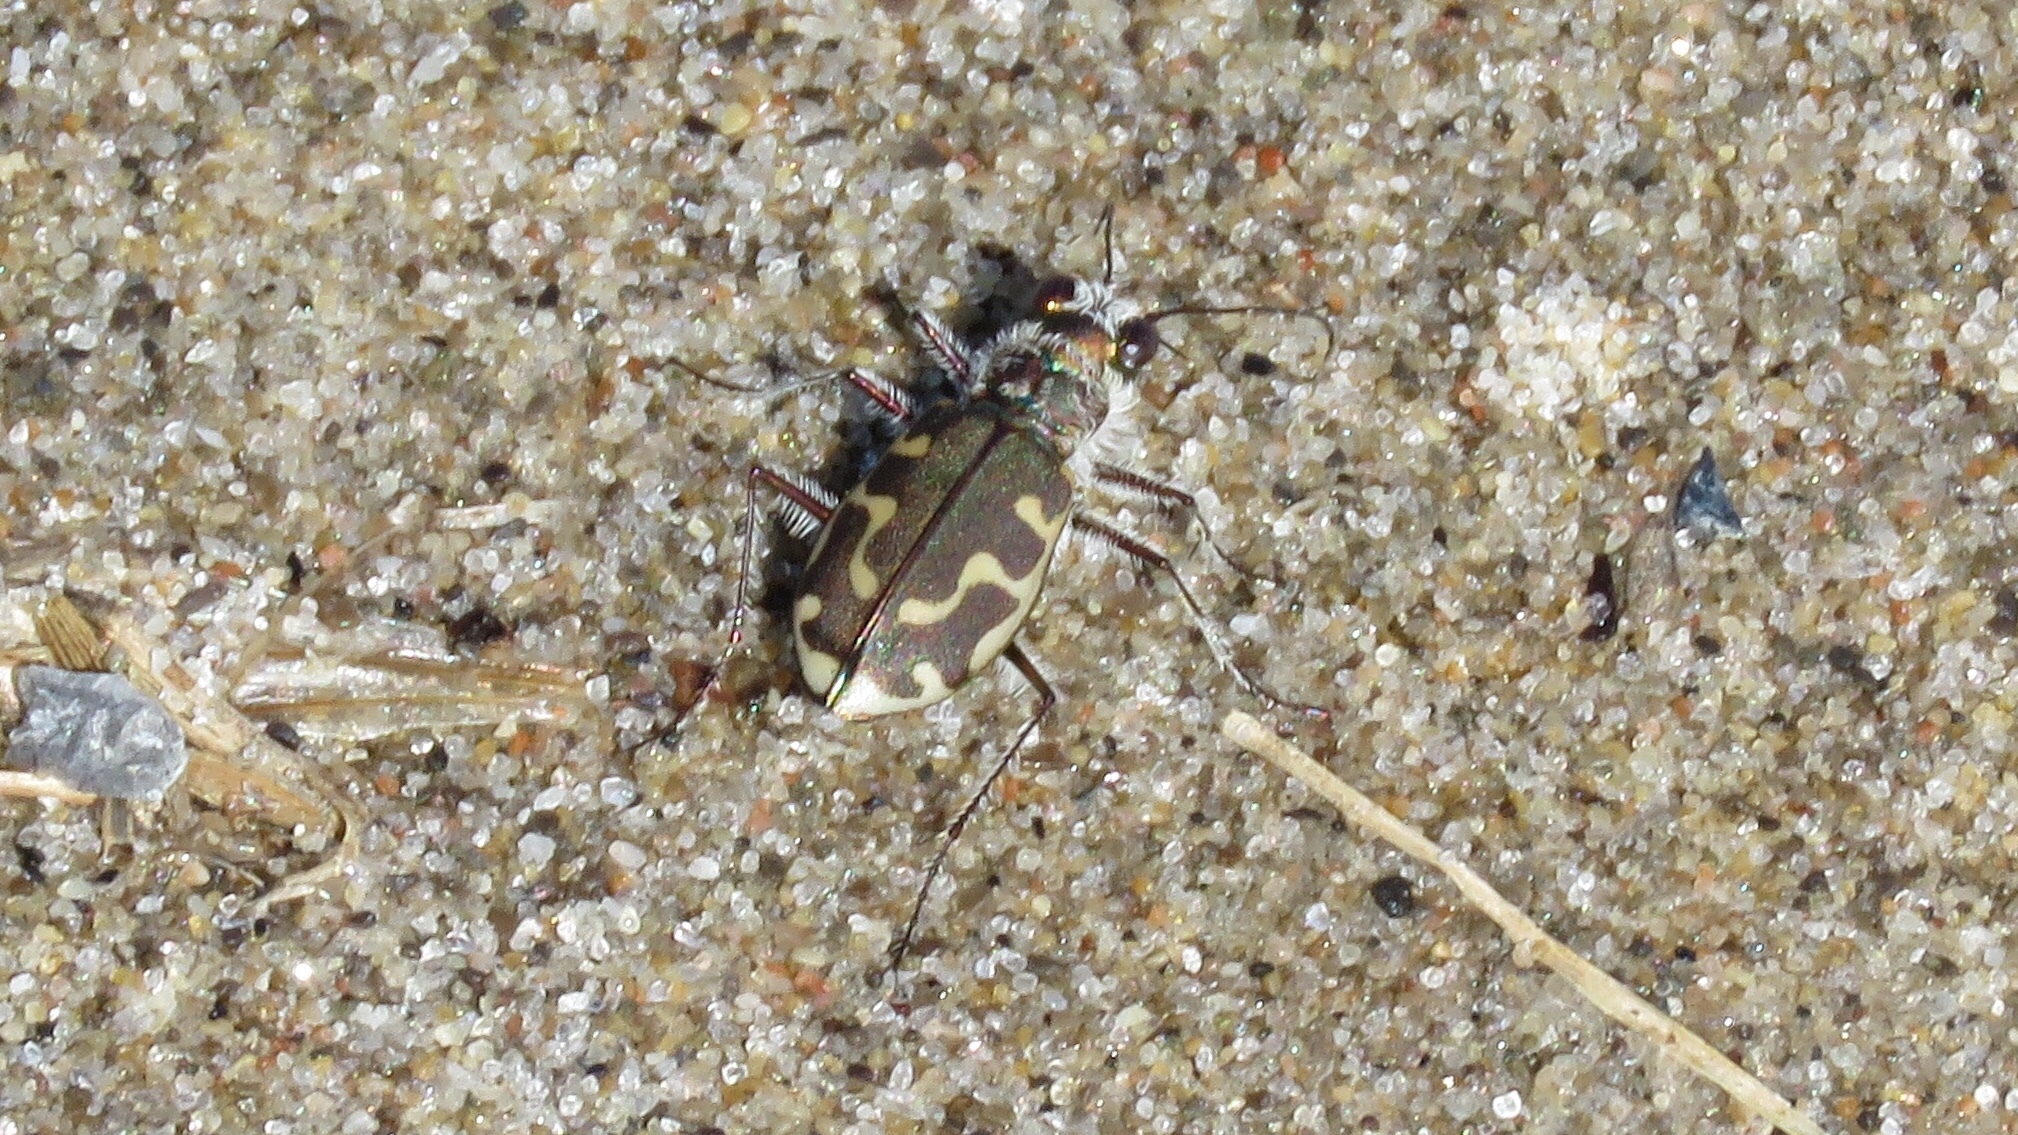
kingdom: Animalia
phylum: Arthropoda
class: Insecta
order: Coleoptera
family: Carabidae
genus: Cicindela
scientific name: Cicindela hirticollis
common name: Hairy-necked tiger beetle
